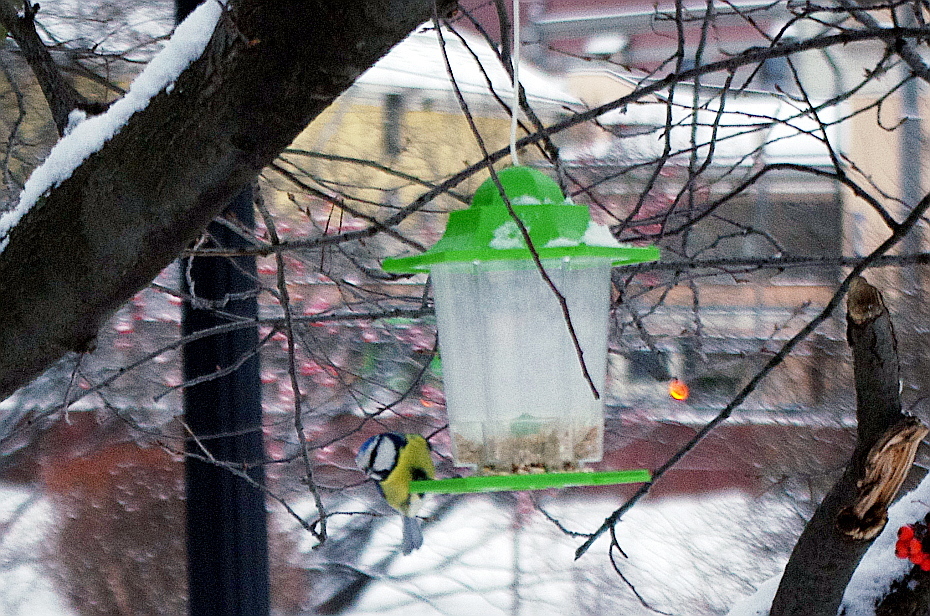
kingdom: Animalia
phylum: Chordata
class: Aves
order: Passeriformes
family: Paridae
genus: Cyanistes
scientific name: Cyanistes caeruleus
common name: Eurasian blue tit
